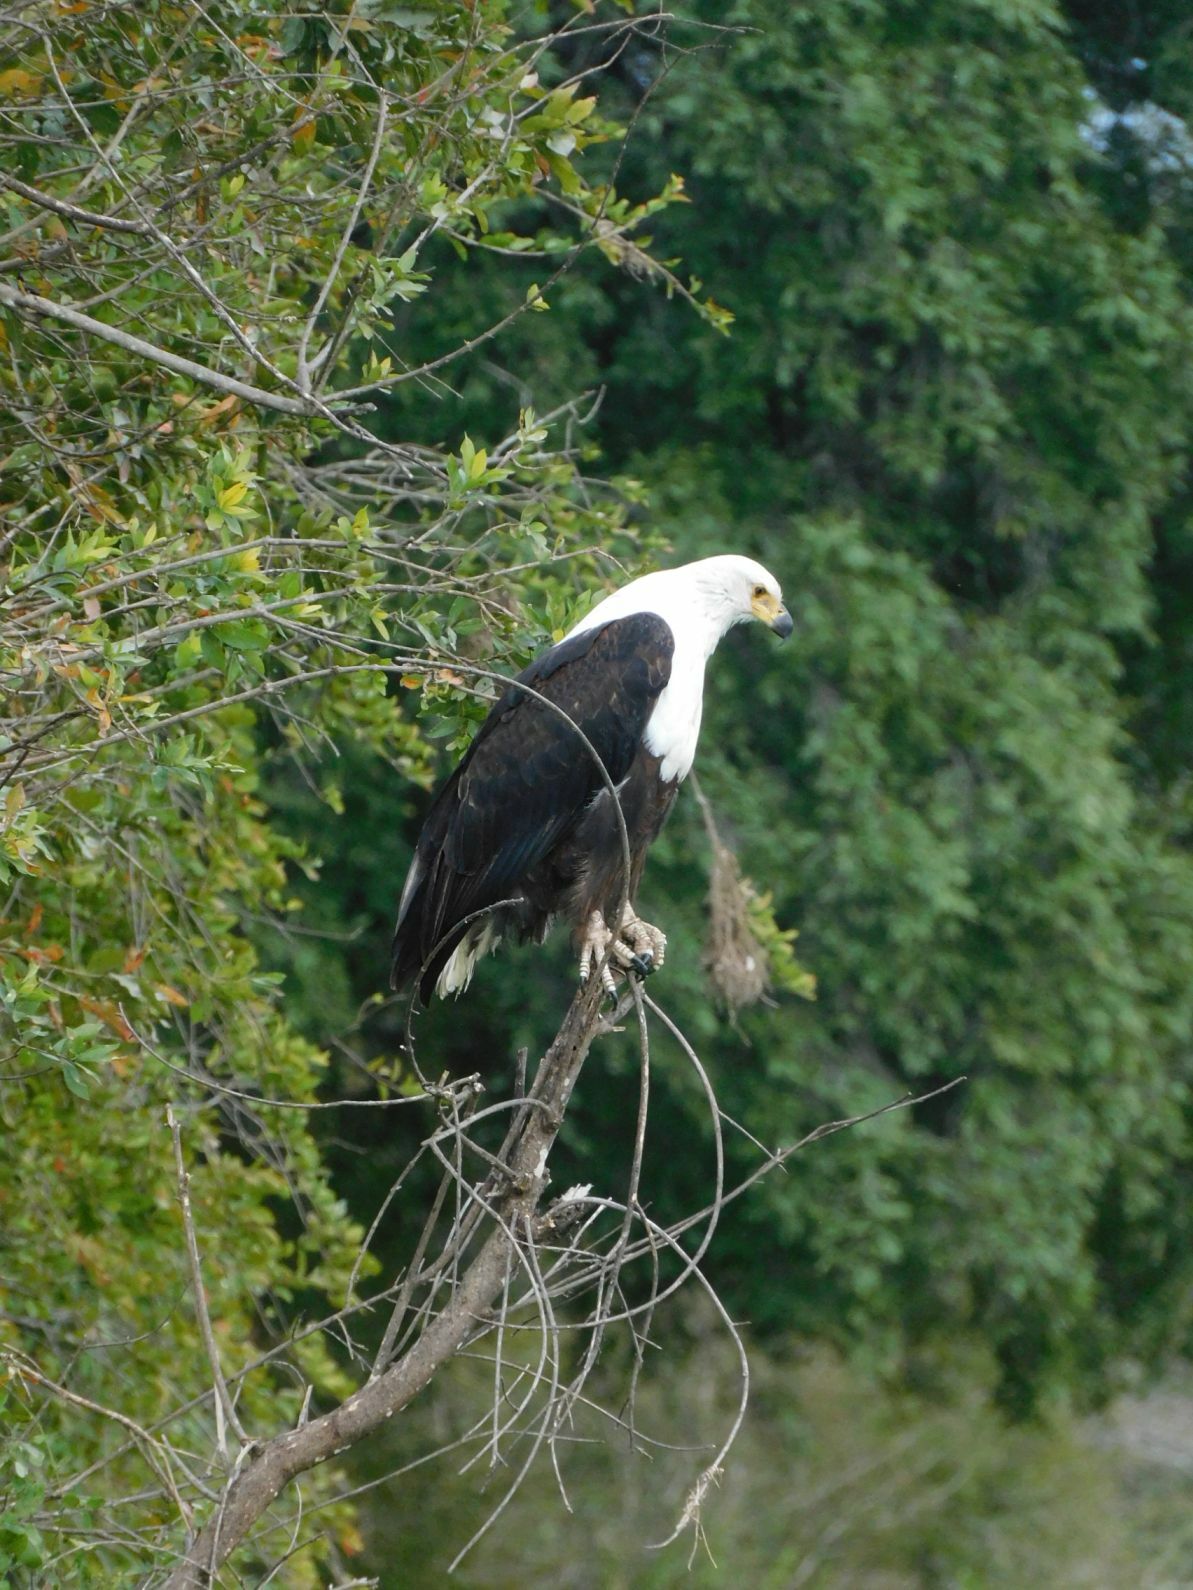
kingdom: Animalia
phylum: Chordata
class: Aves
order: Accipitriformes
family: Accipitridae
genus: Haliaeetus
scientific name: Haliaeetus vocifer
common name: African fish eagle
